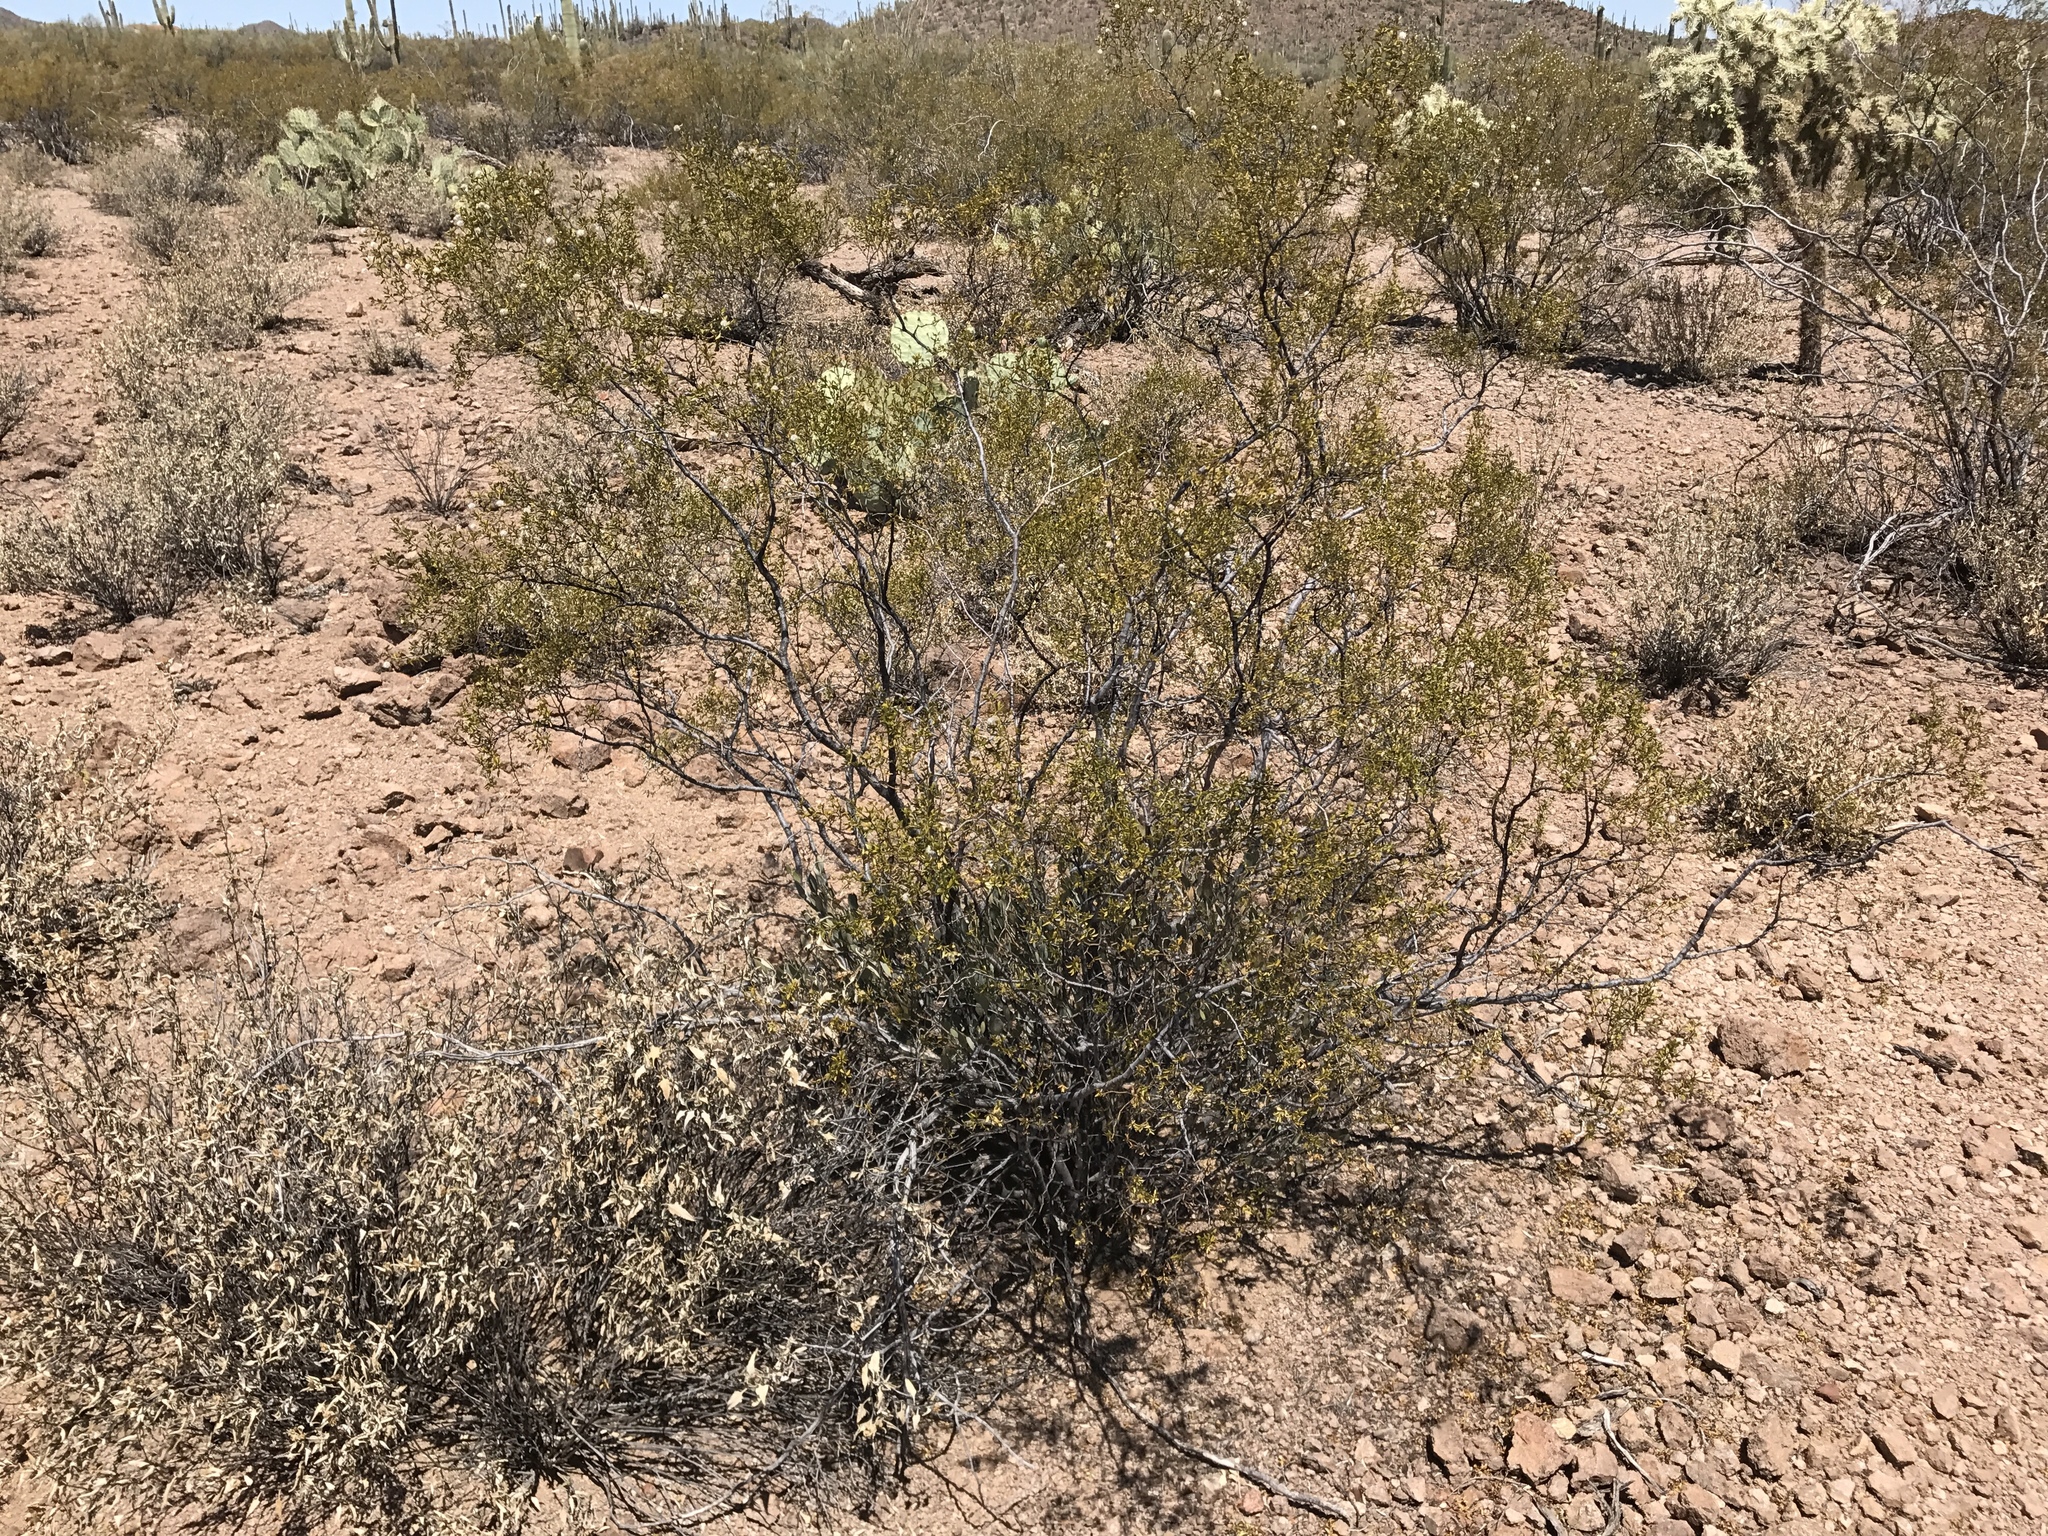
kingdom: Plantae
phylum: Tracheophyta
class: Magnoliopsida
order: Zygophyllales
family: Zygophyllaceae
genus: Larrea
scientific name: Larrea tridentata
